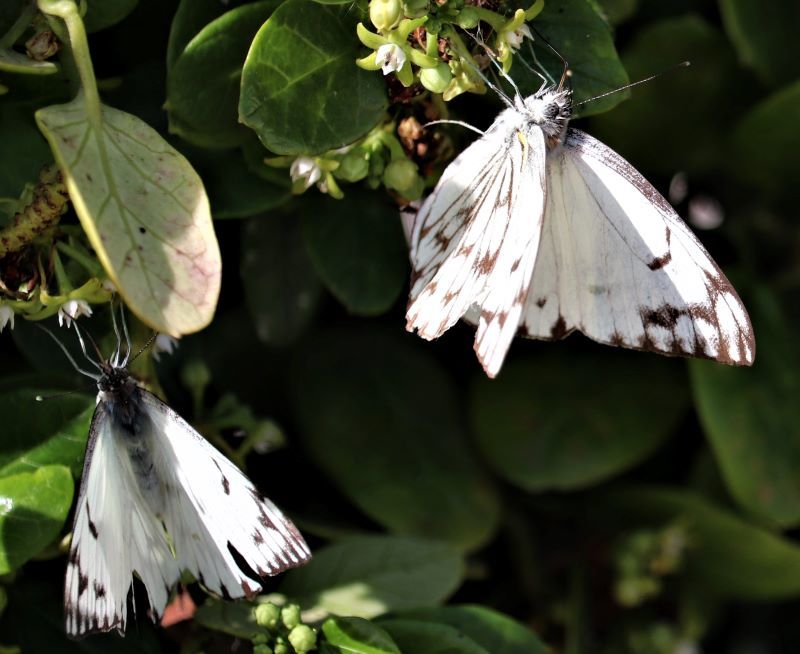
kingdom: Animalia
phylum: Arthropoda
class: Insecta
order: Lepidoptera
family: Pieridae
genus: Belenois
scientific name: Belenois gidica
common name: Pointed caper white
